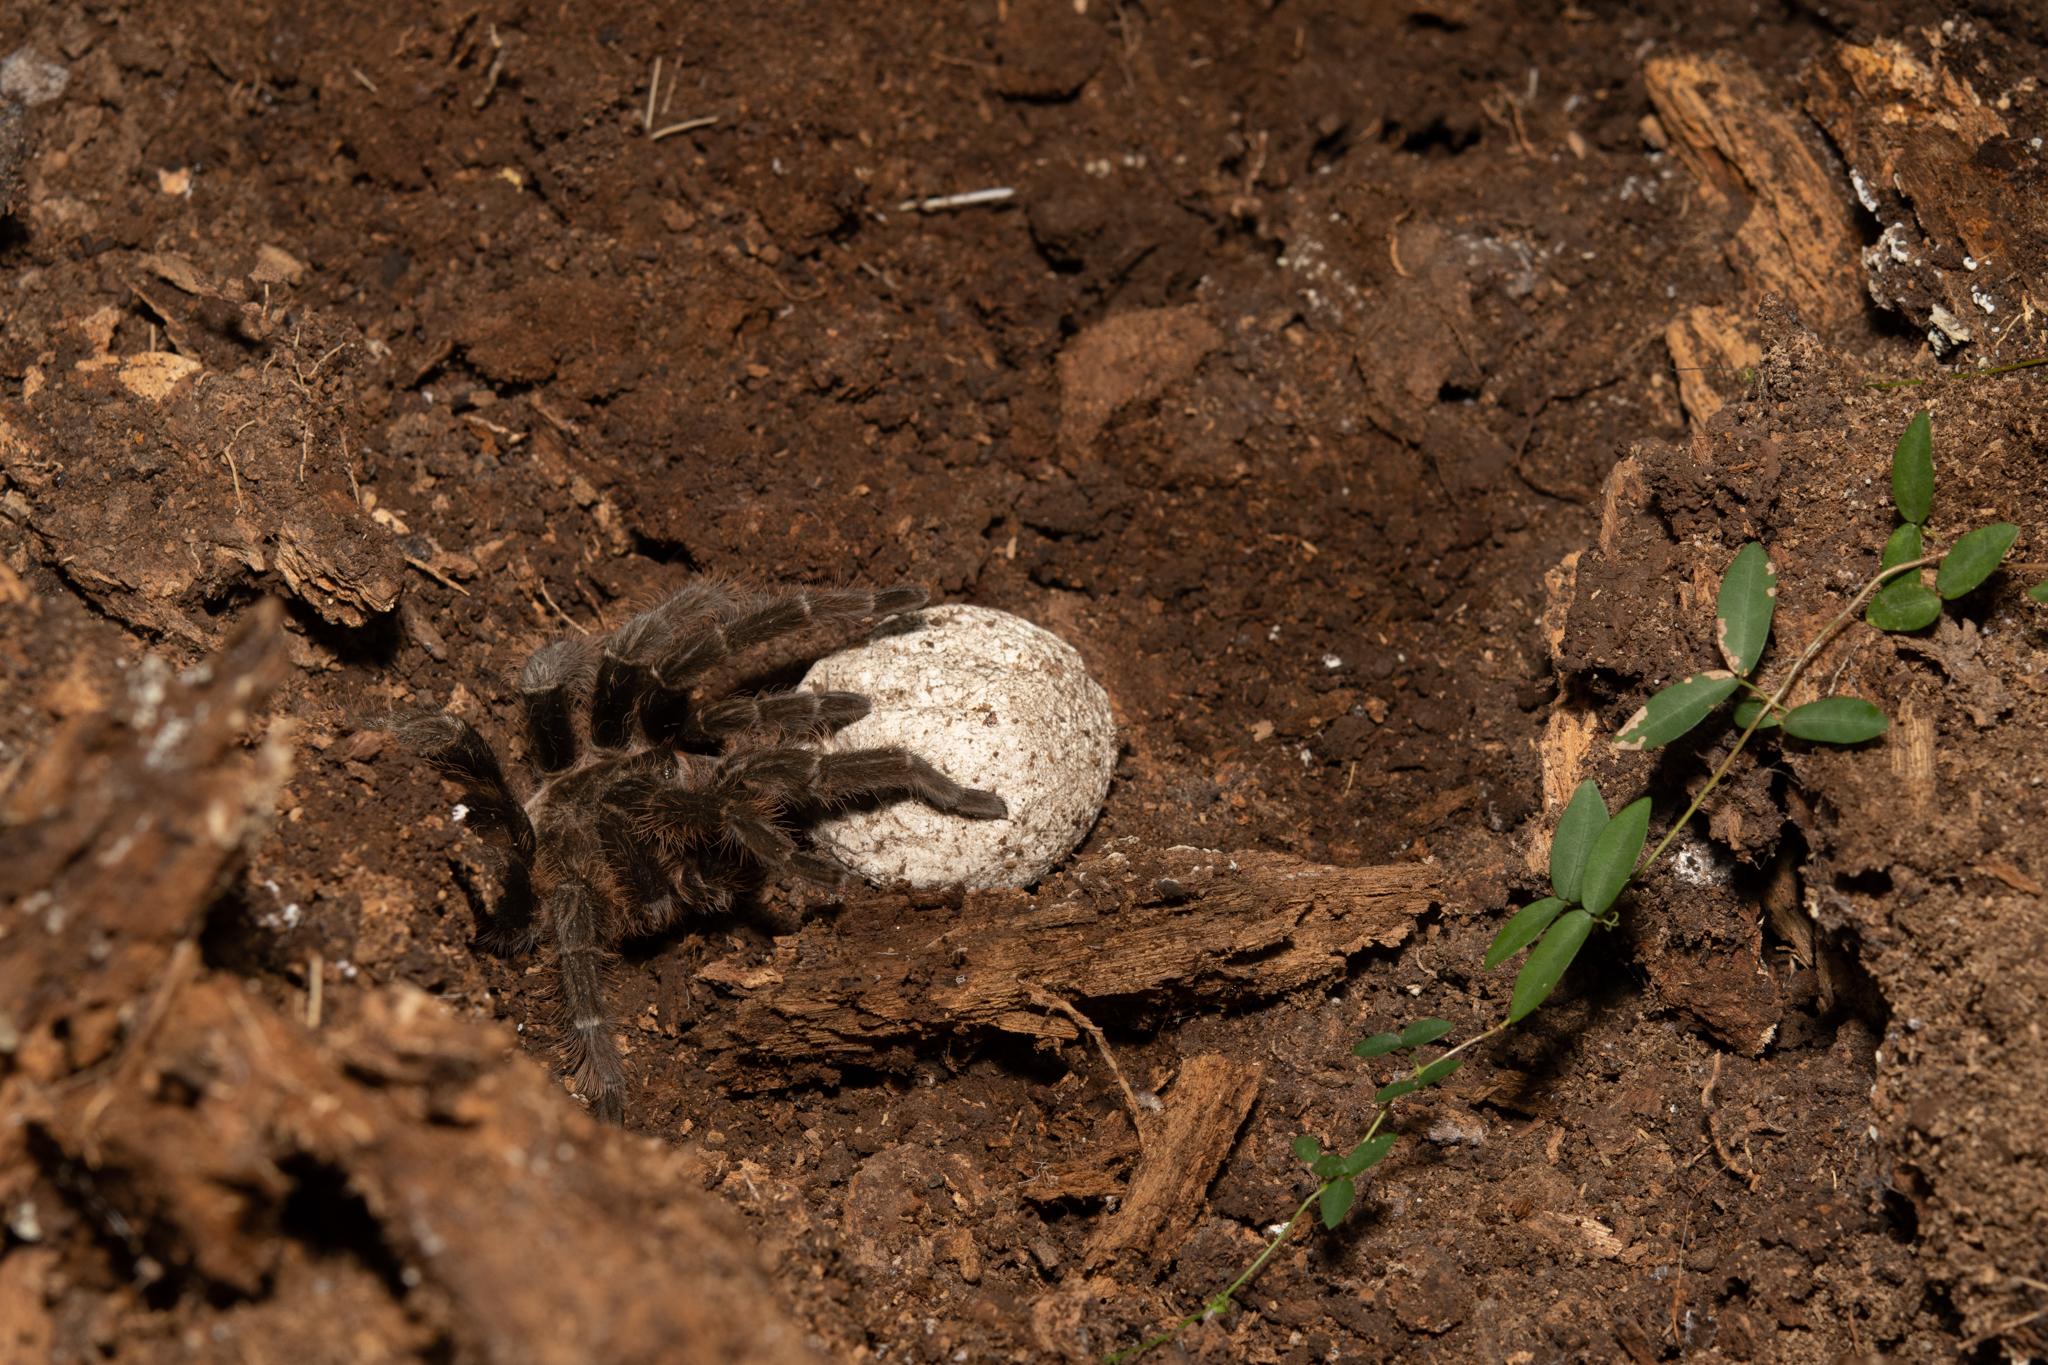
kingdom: Animalia
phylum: Arthropoda
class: Arachnida
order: Araneae
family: Theraphosidae
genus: Tliltocatl
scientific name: Tliltocatl albopilosus
